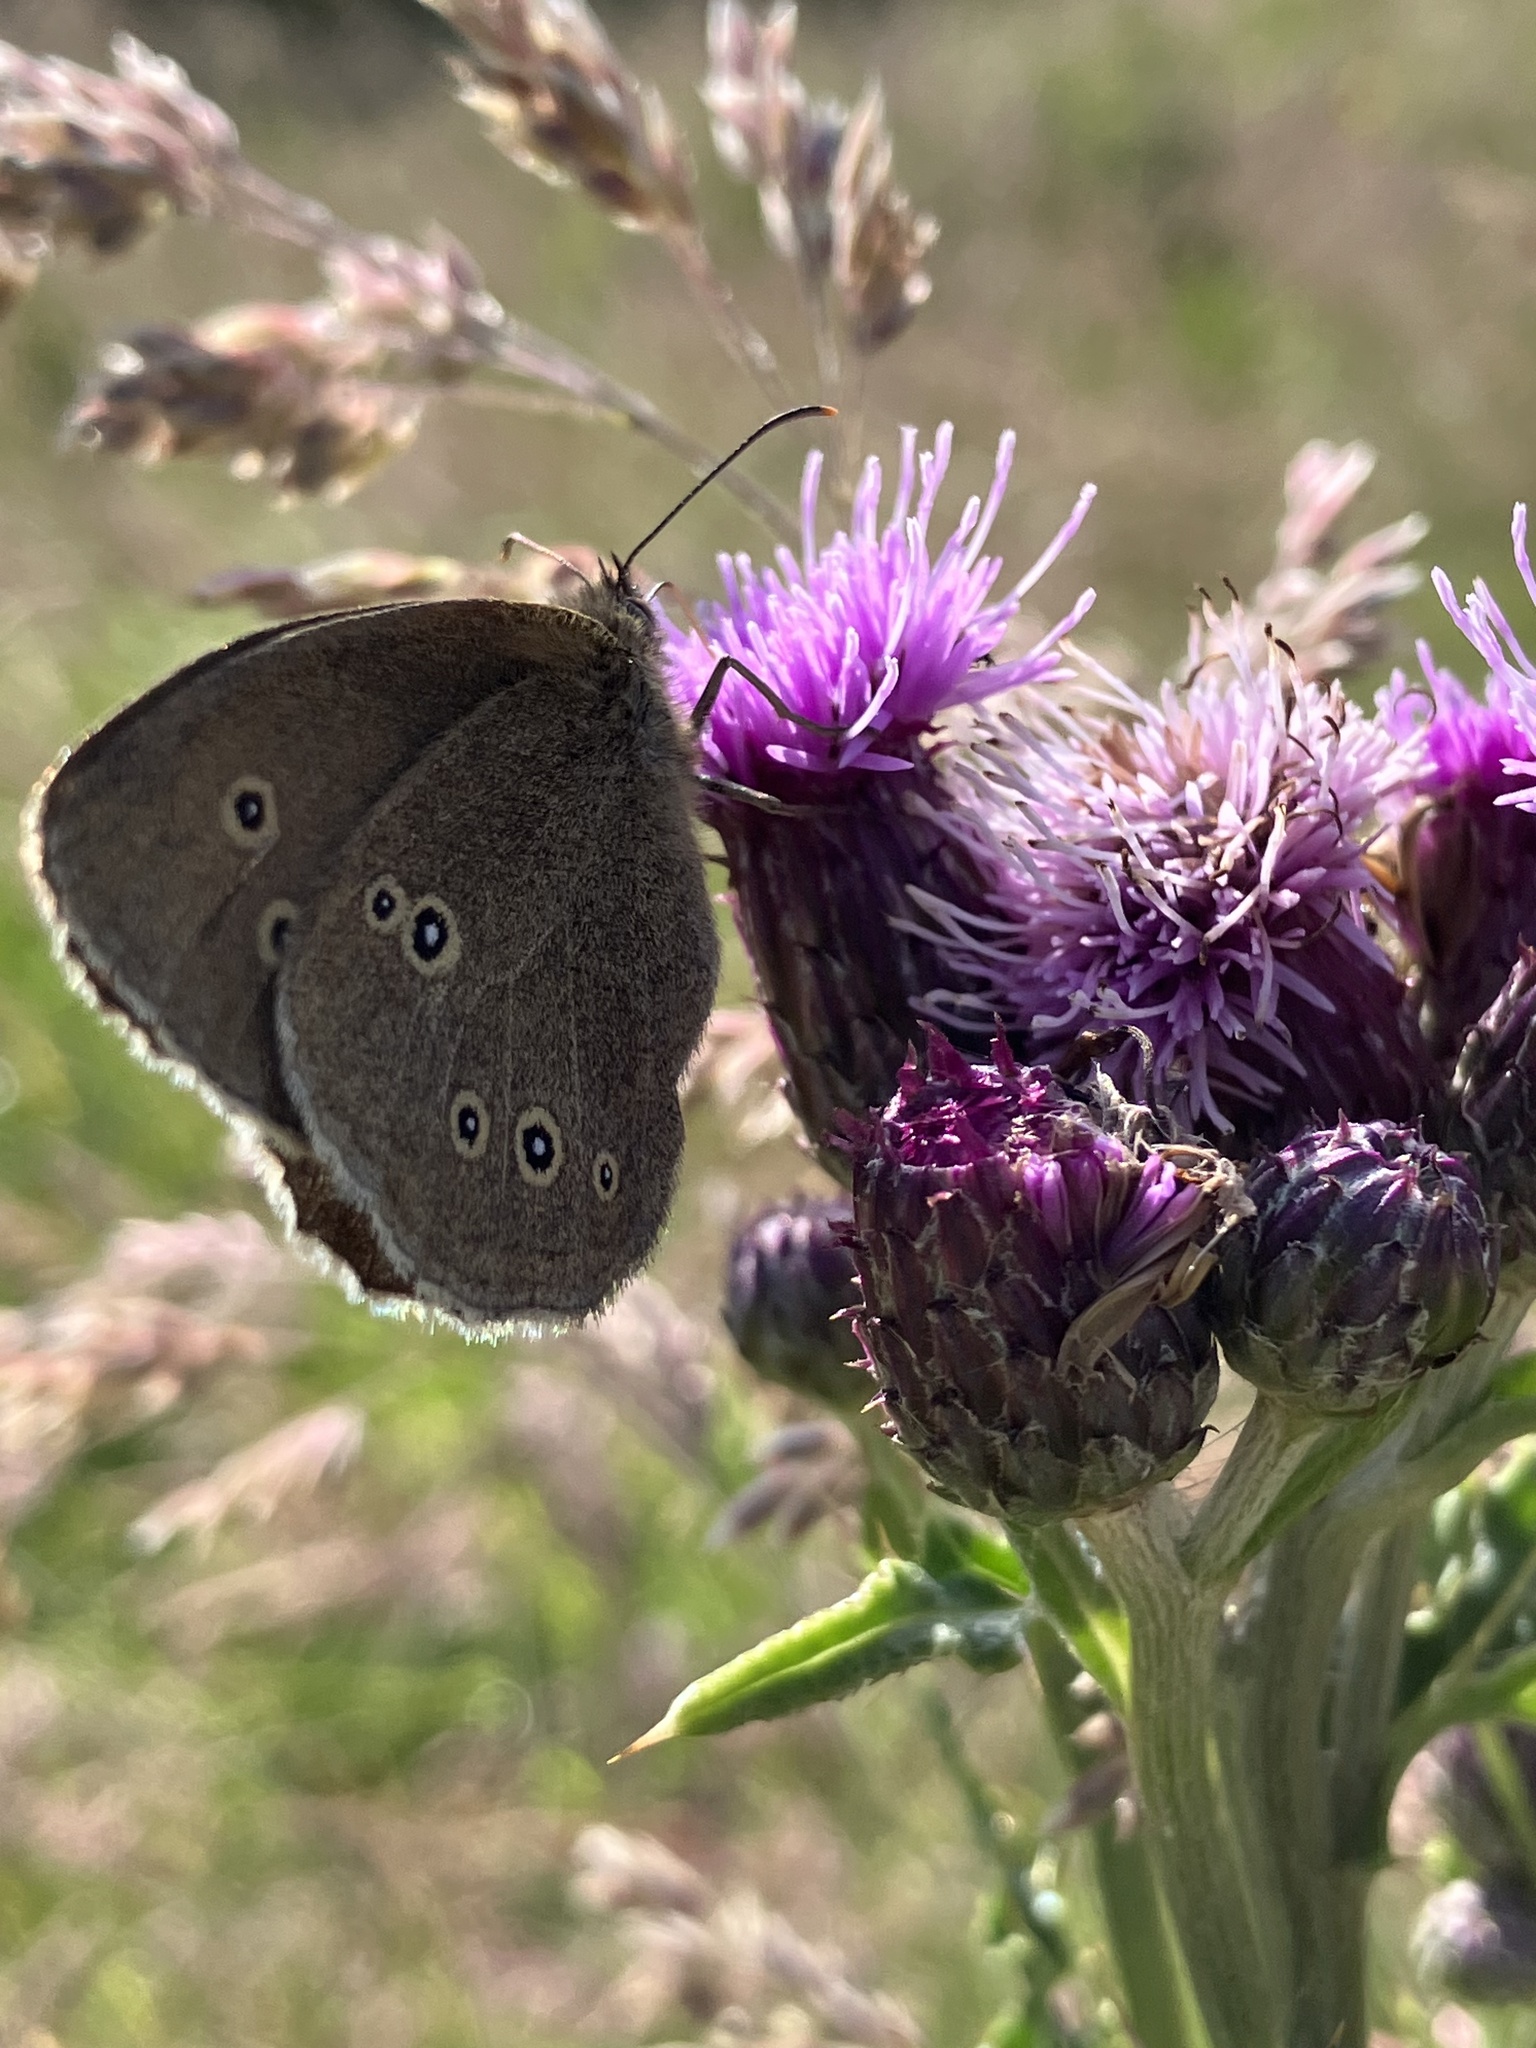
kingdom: Animalia
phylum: Arthropoda
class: Insecta
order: Lepidoptera
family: Nymphalidae
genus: Aphantopus
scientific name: Aphantopus hyperantus
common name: Ringlet
